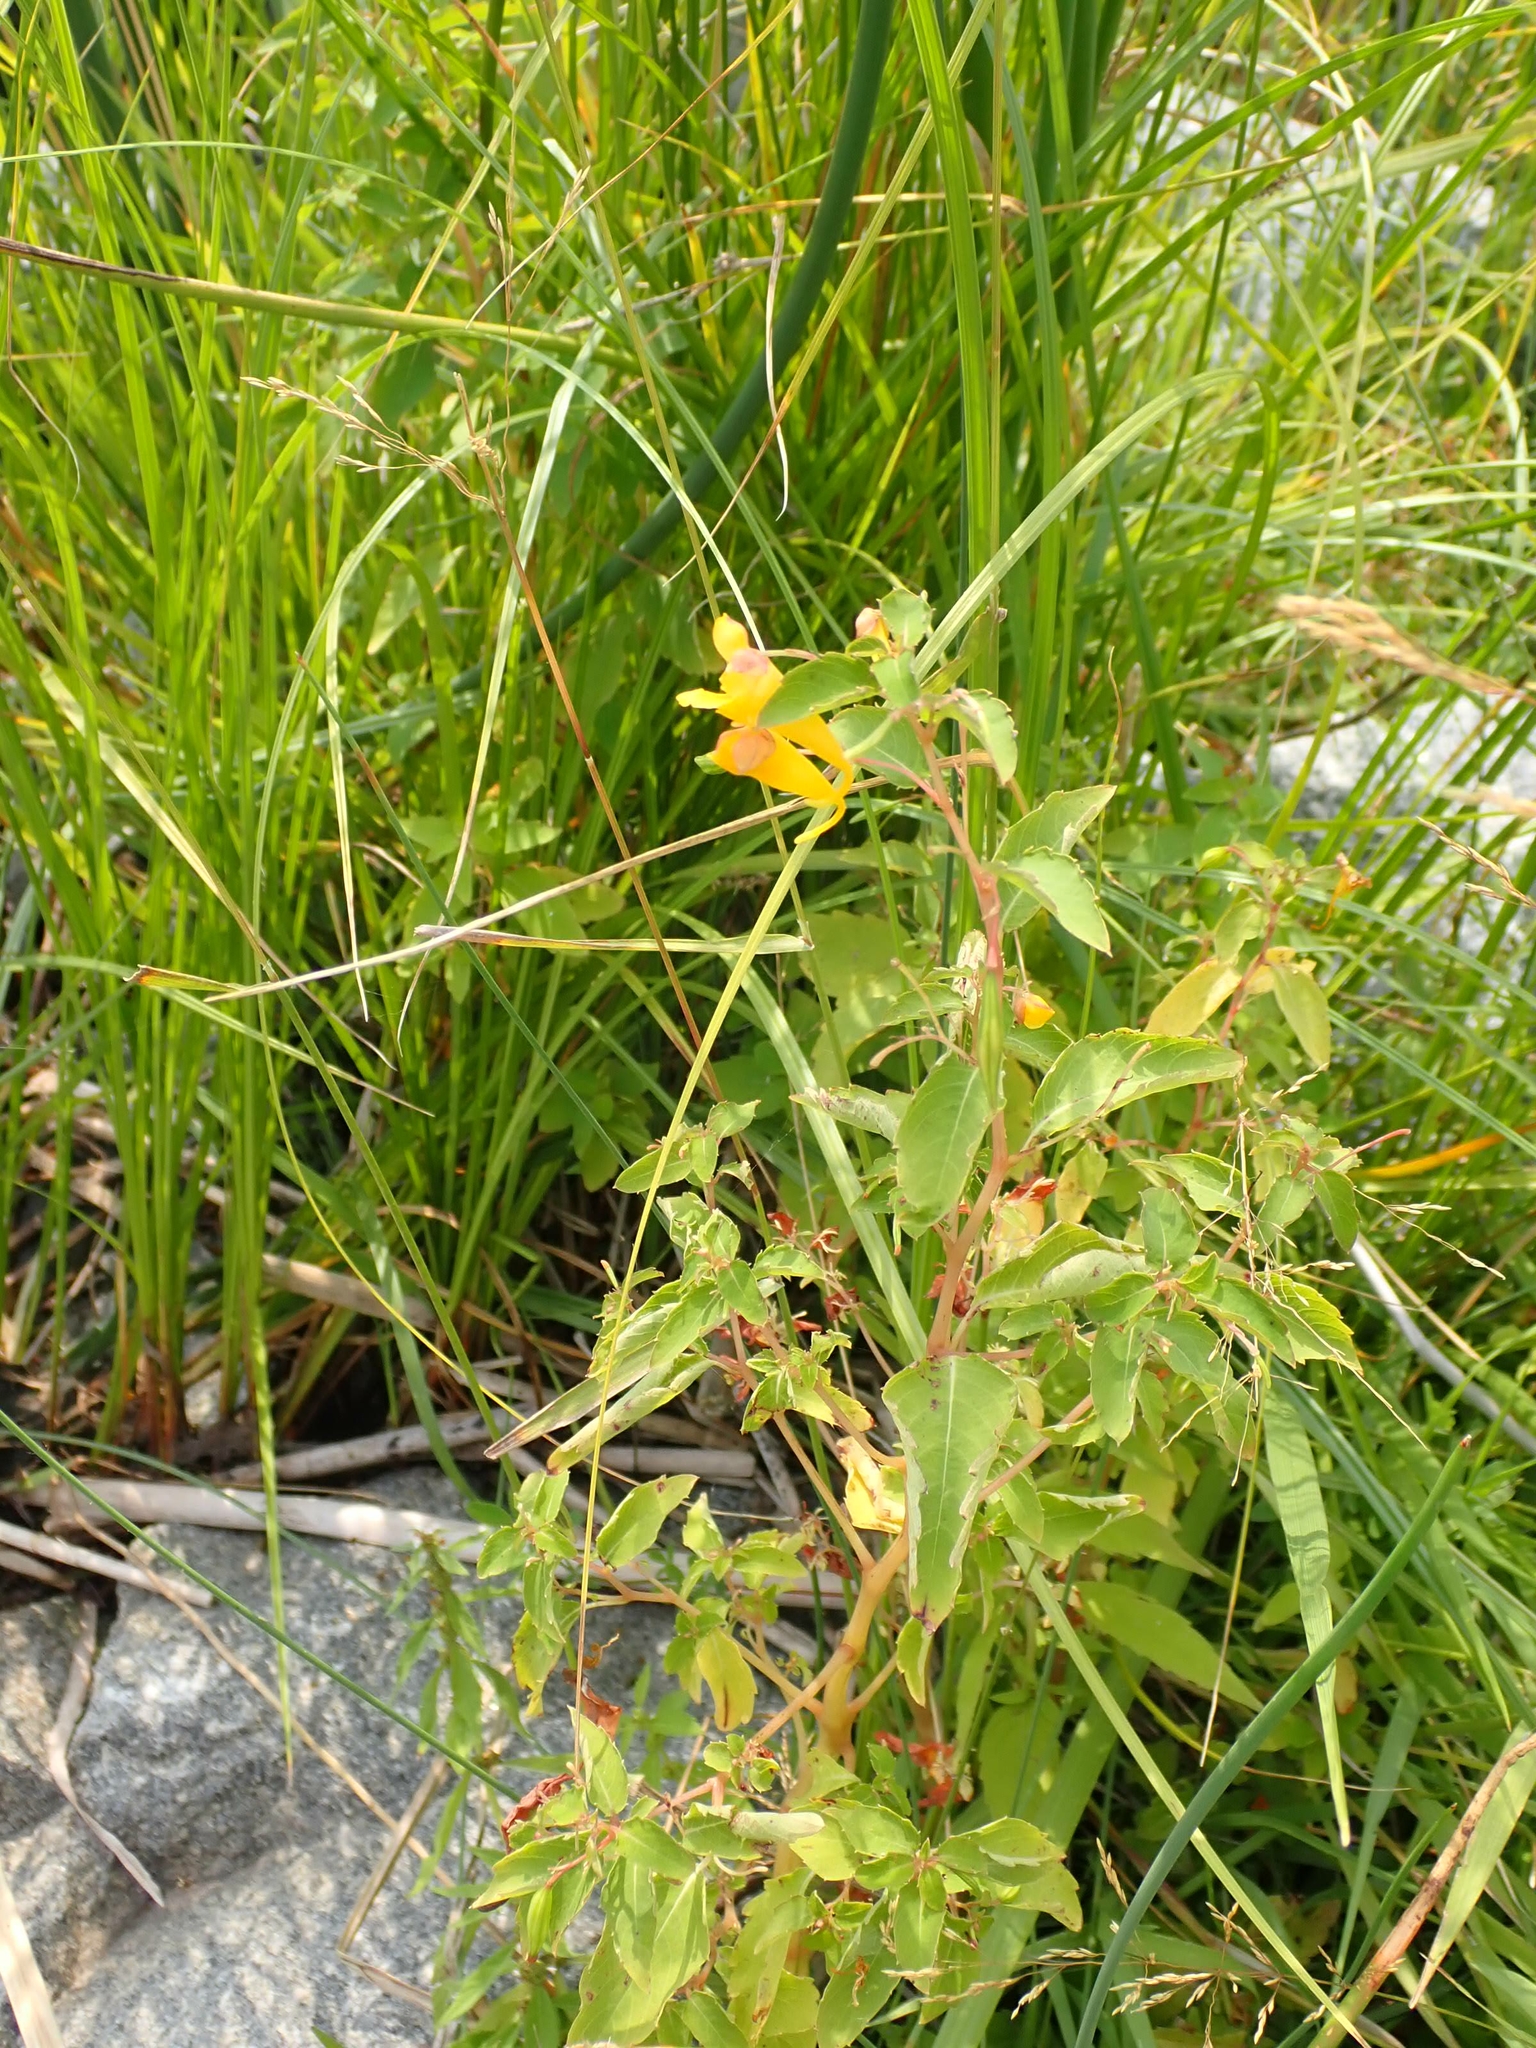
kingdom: Plantae
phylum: Tracheophyta
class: Magnoliopsida
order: Ericales
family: Balsaminaceae
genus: Impatiens
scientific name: Impatiens capensis
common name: Orange balsam
